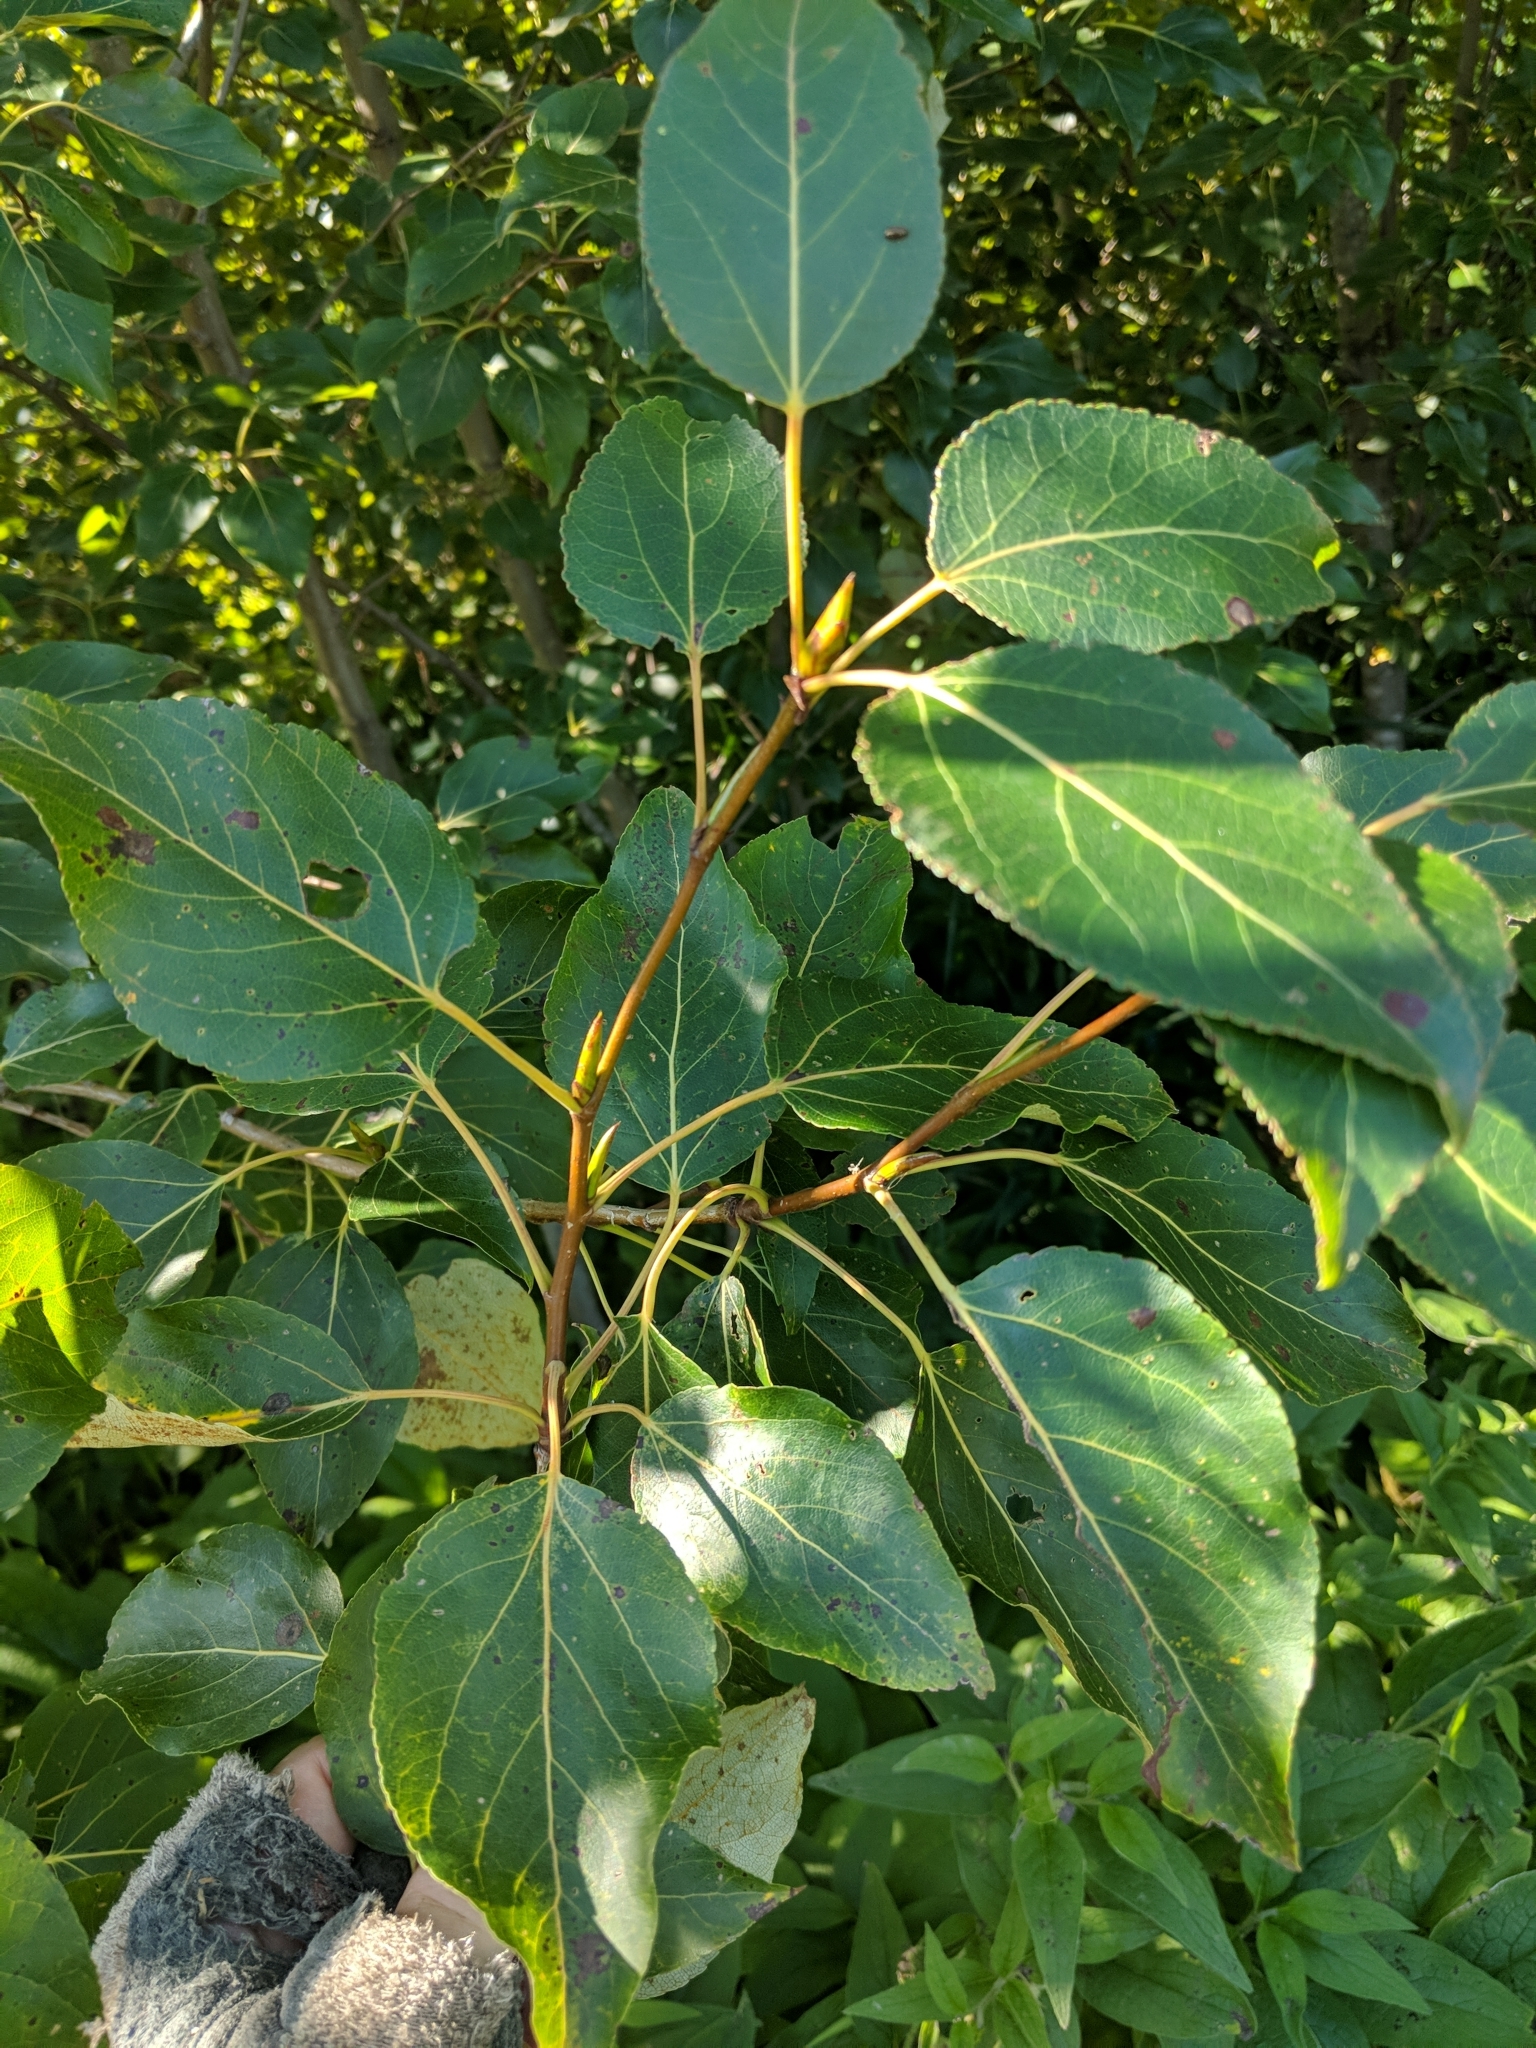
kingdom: Plantae
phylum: Tracheophyta
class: Magnoliopsida
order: Malpighiales
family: Salicaceae
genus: Populus
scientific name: Populus balsamifera
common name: Balsam poplar
